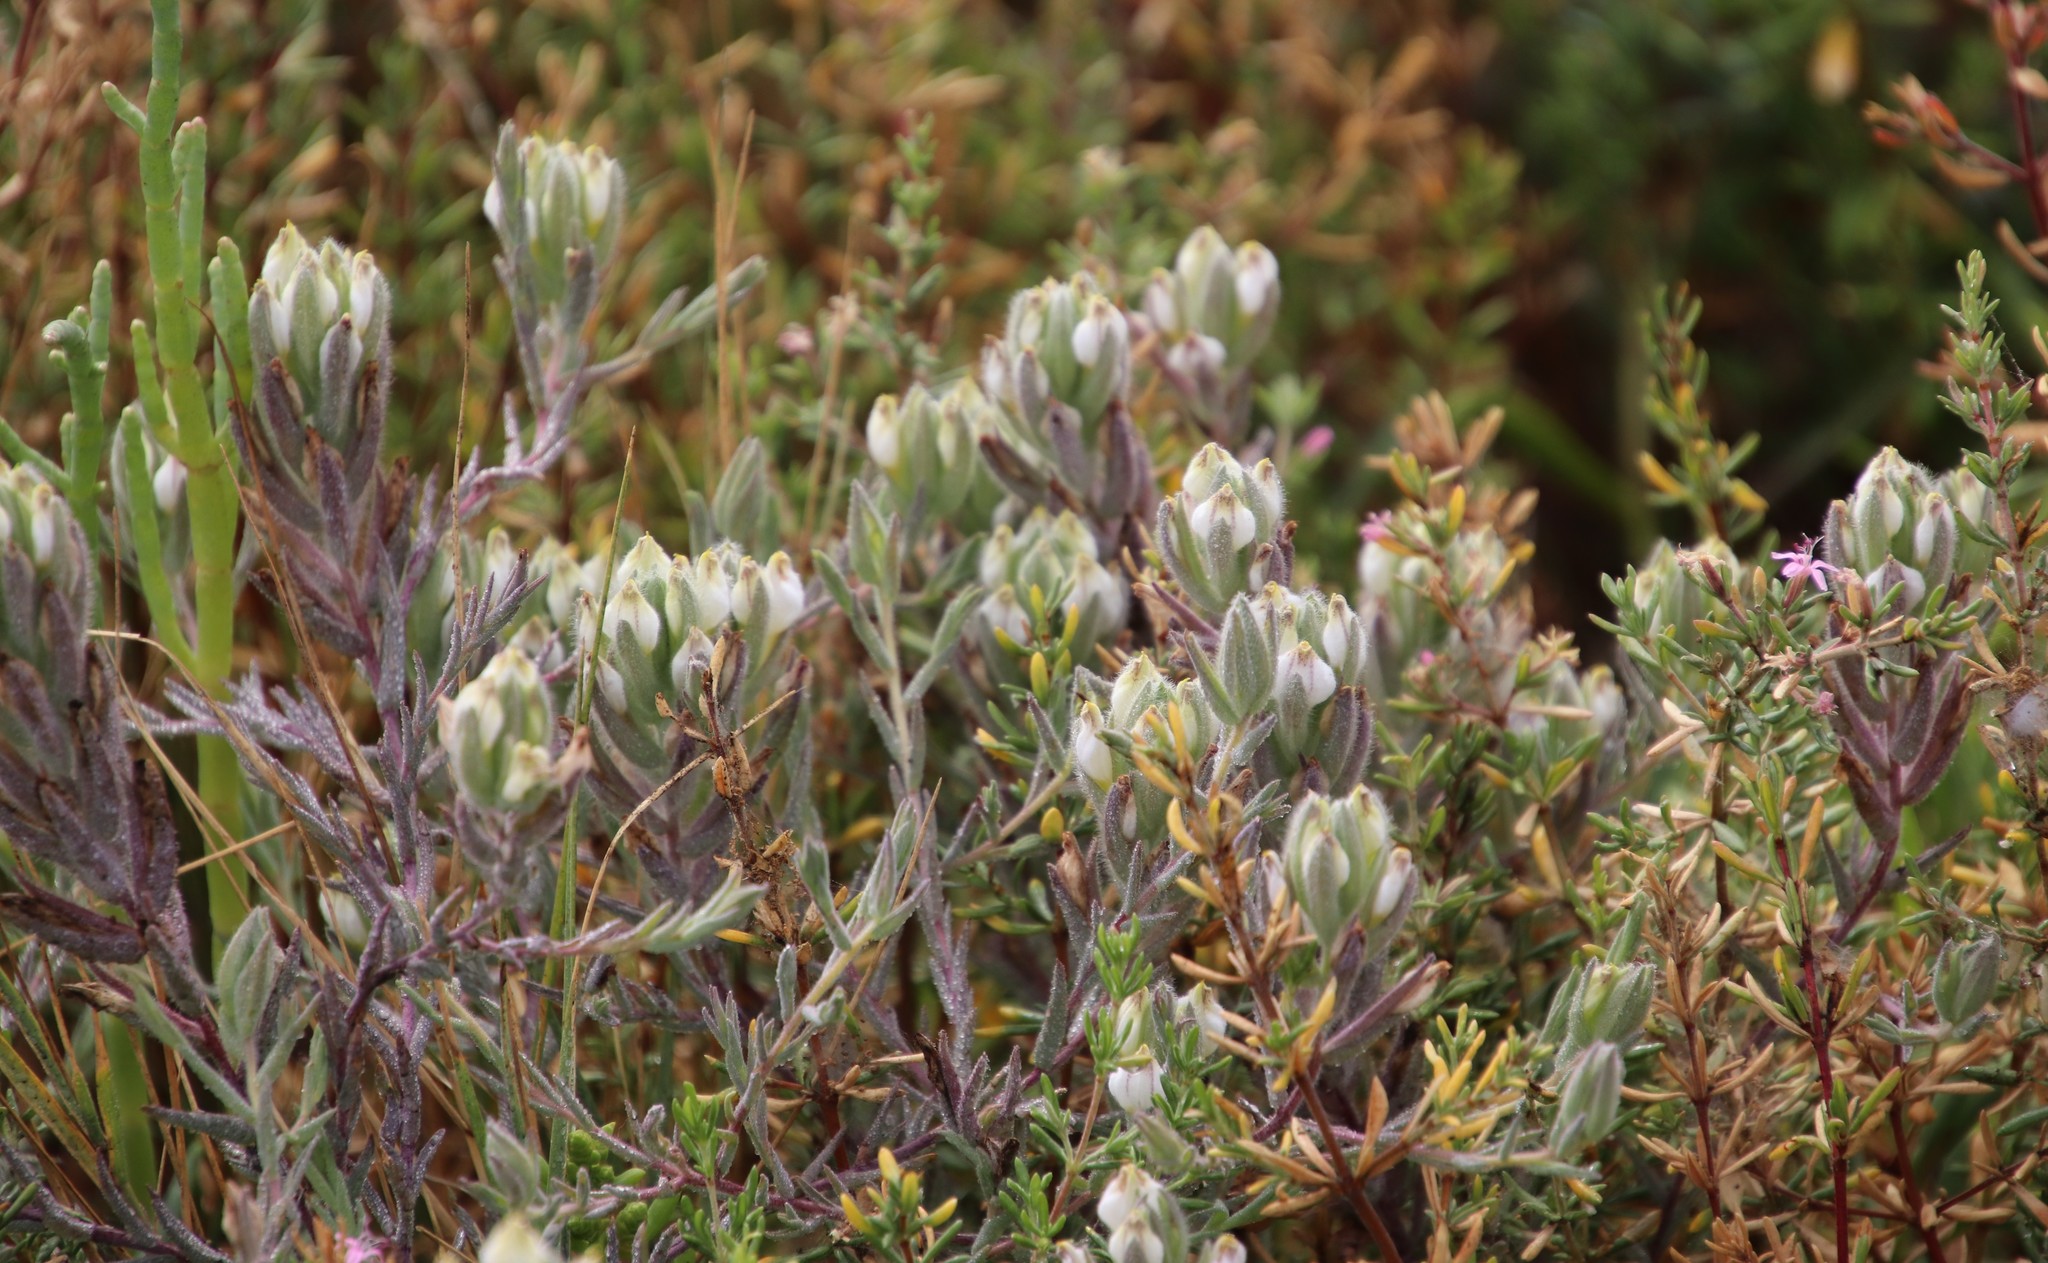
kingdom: Plantae
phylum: Tracheophyta
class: Magnoliopsida
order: Lamiales
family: Orobanchaceae
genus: Chloropyron
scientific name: Chloropyron maritimum
